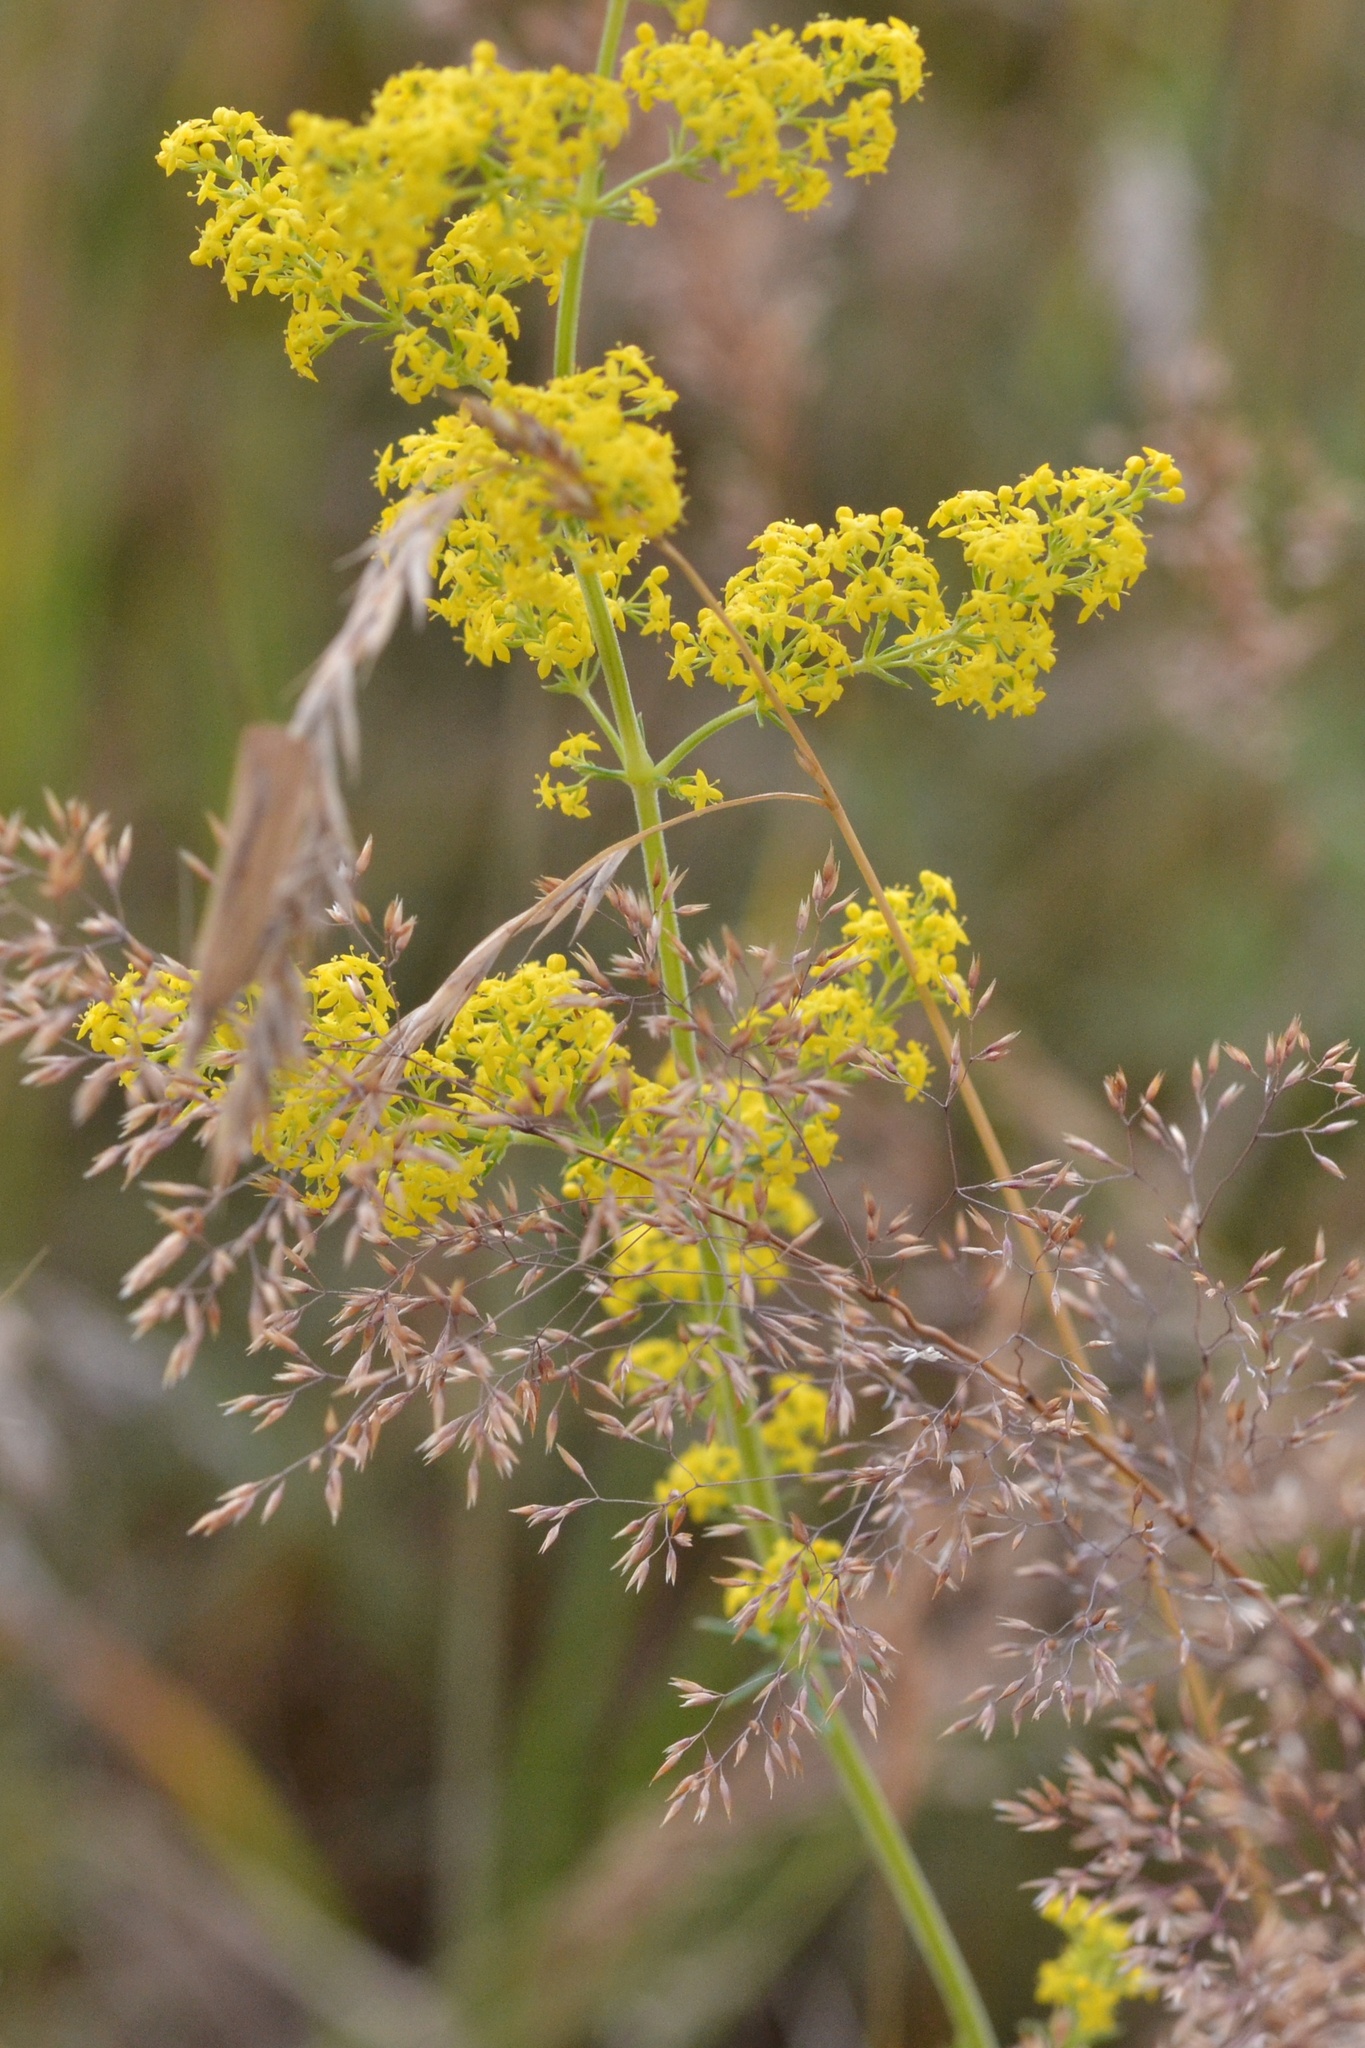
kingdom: Plantae
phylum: Tracheophyta
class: Magnoliopsida
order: Gentianales
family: Rubiaceae
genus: Galium
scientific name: Galium verum
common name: Lady's bedstraw
